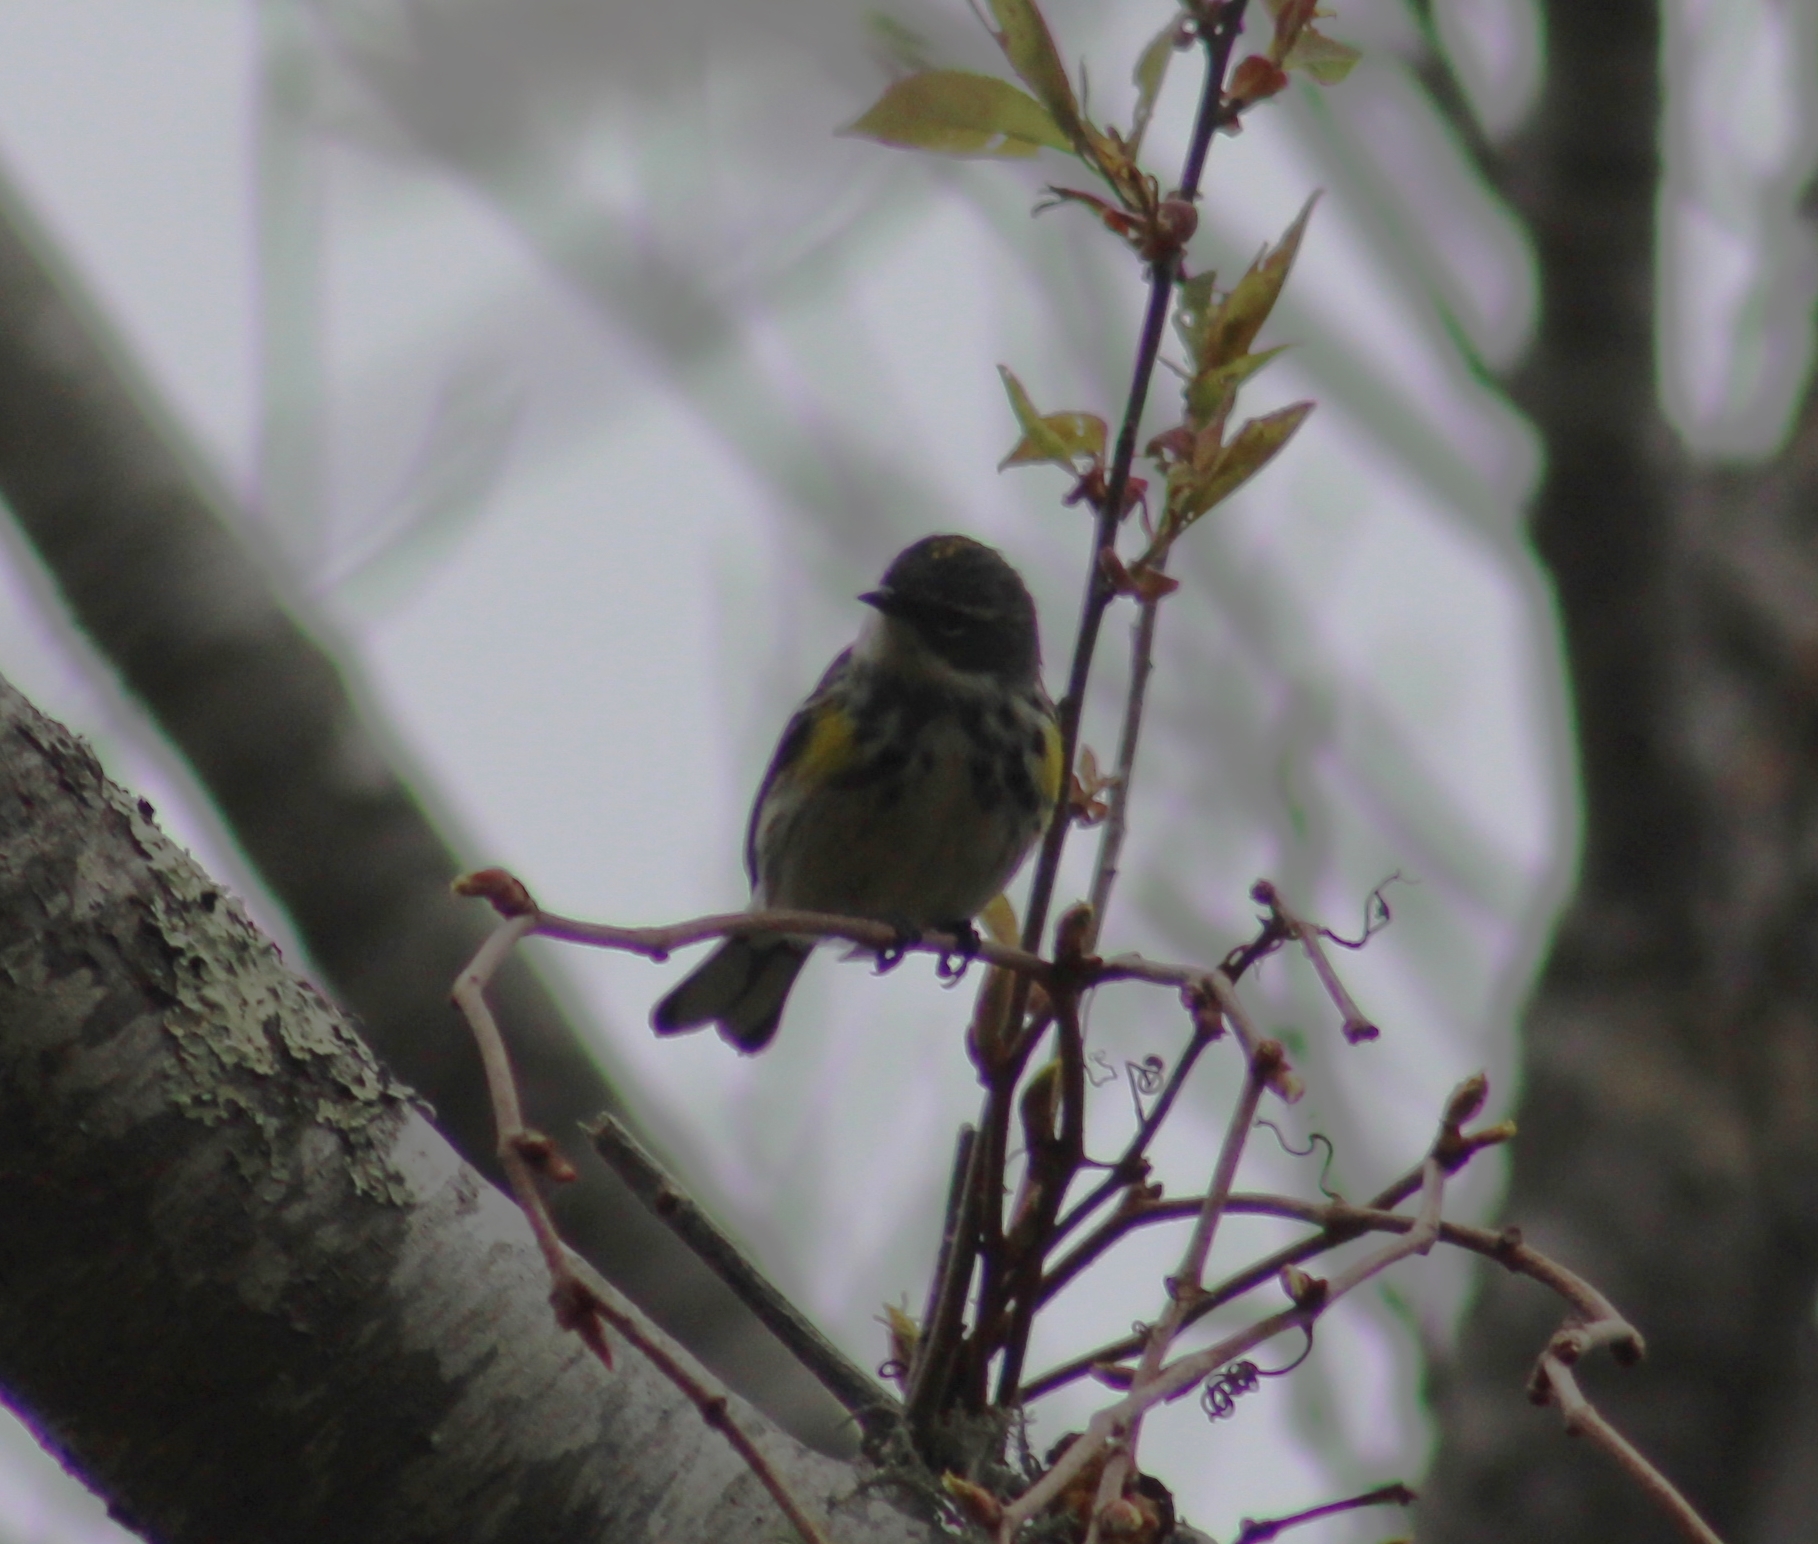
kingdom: Animalia
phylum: Chordata
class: Aves
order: Passeriformes
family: Parulidae
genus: Setophaga
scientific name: Setophaga coronata
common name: Myrtle warbler
